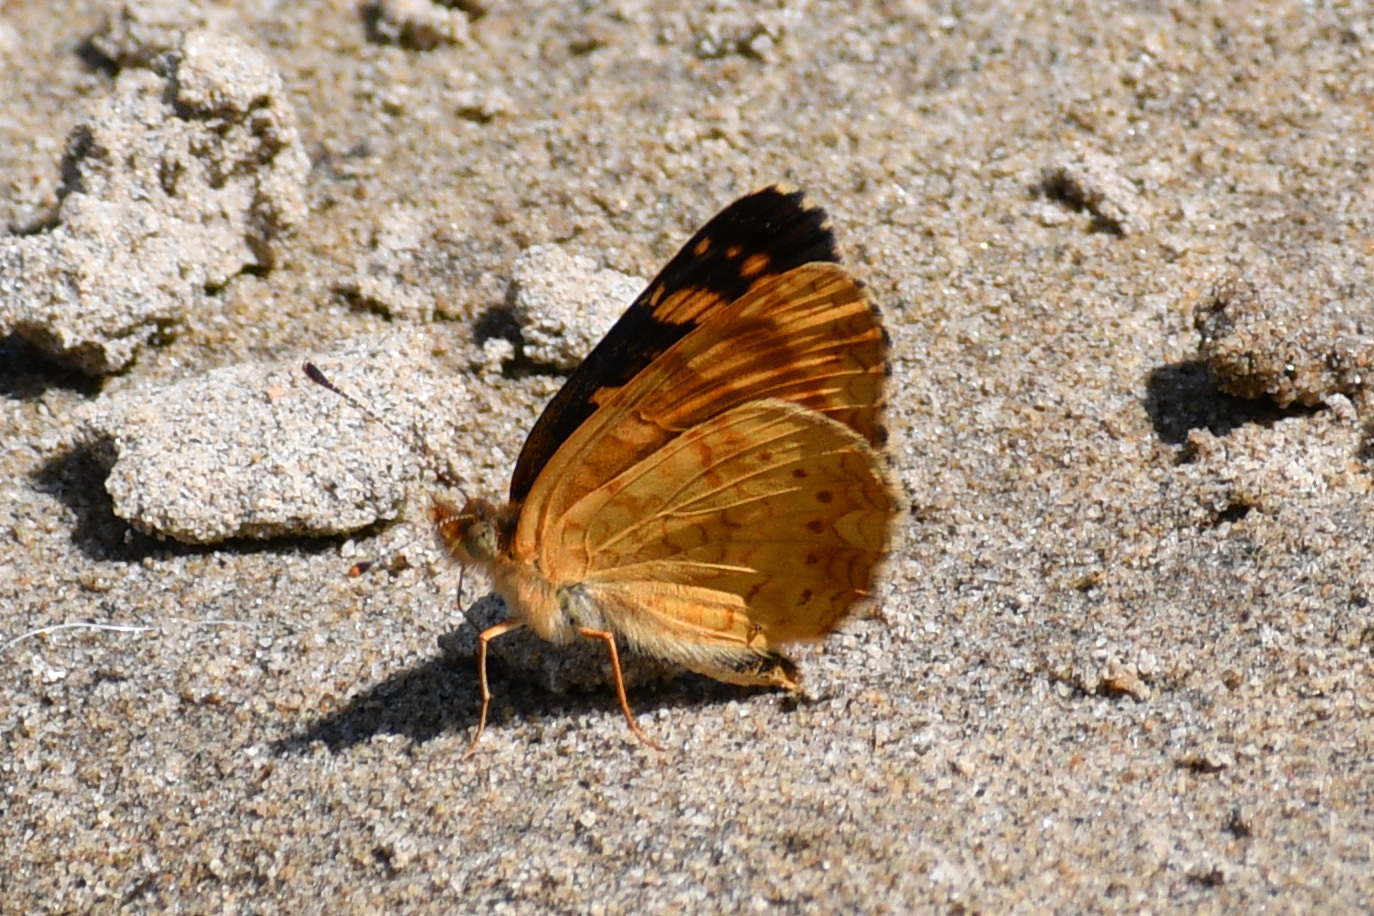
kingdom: Animalia
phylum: Arthropoda
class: Insecta
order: Lepidoptera
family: Nymphalidae
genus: Phyciodes
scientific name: Phyciodes tharos
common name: Pearl crescent
